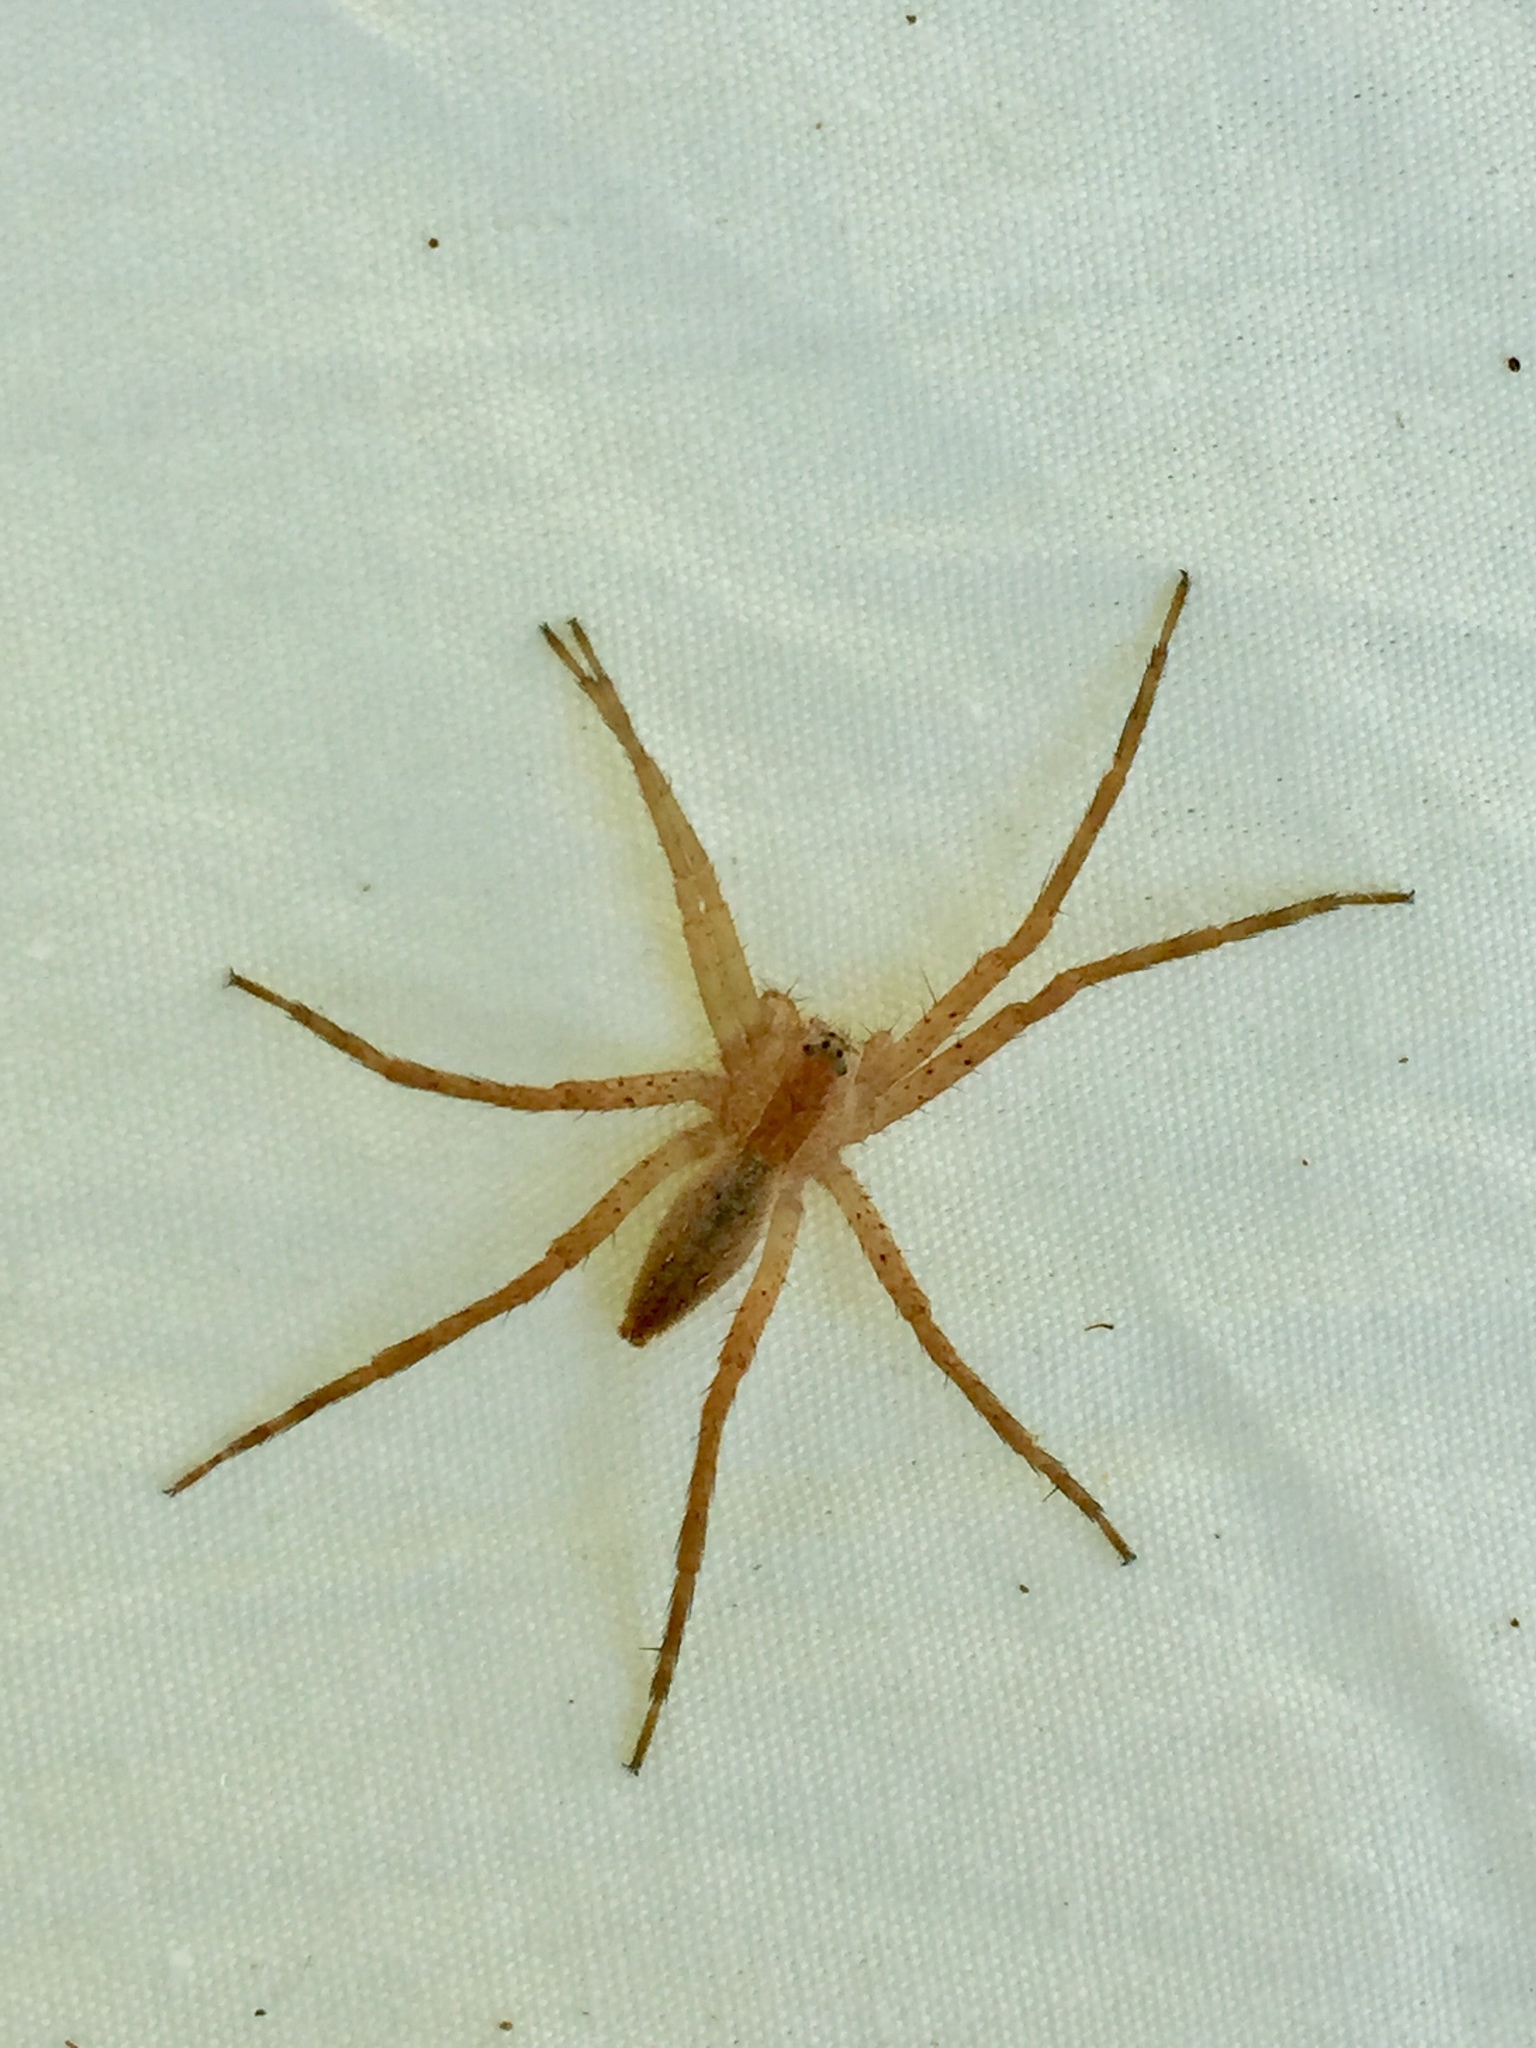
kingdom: Animalia
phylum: Arthropoda
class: Arachnida
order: Araneae
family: Pisauridae
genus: Pisaurina
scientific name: Pisaurina mira
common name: American nursery web spider
